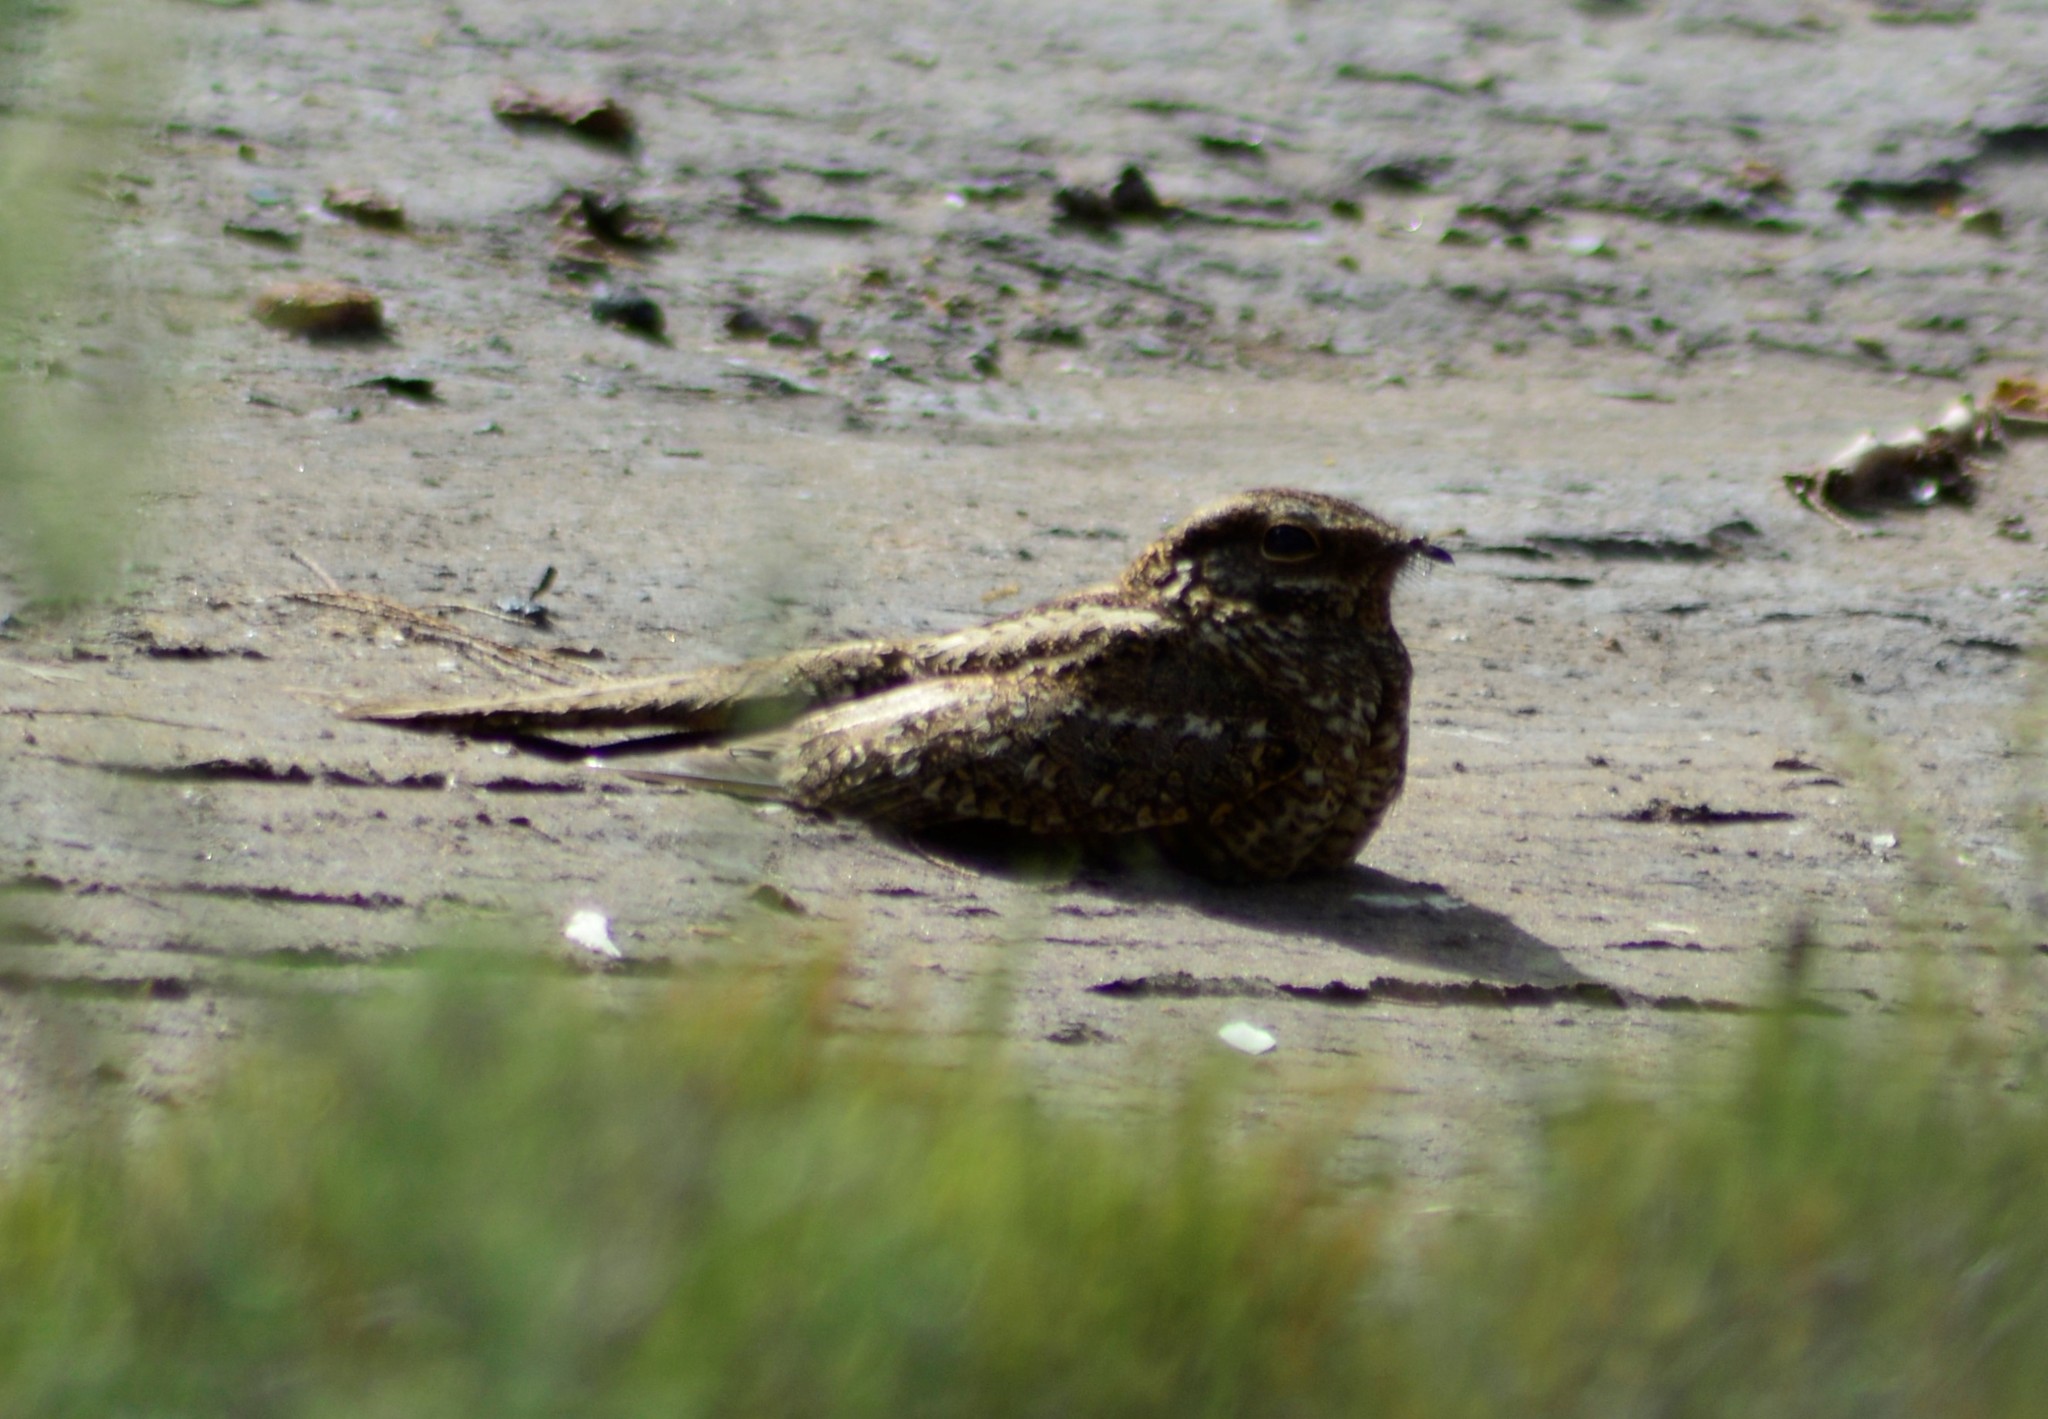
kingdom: Animalia
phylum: Chordata
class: Aves
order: Caprimulgiformes
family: Caprimulgidae
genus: Hydropsalis
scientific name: Hydropsalis torquata
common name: Scissor-tailed nightjar
